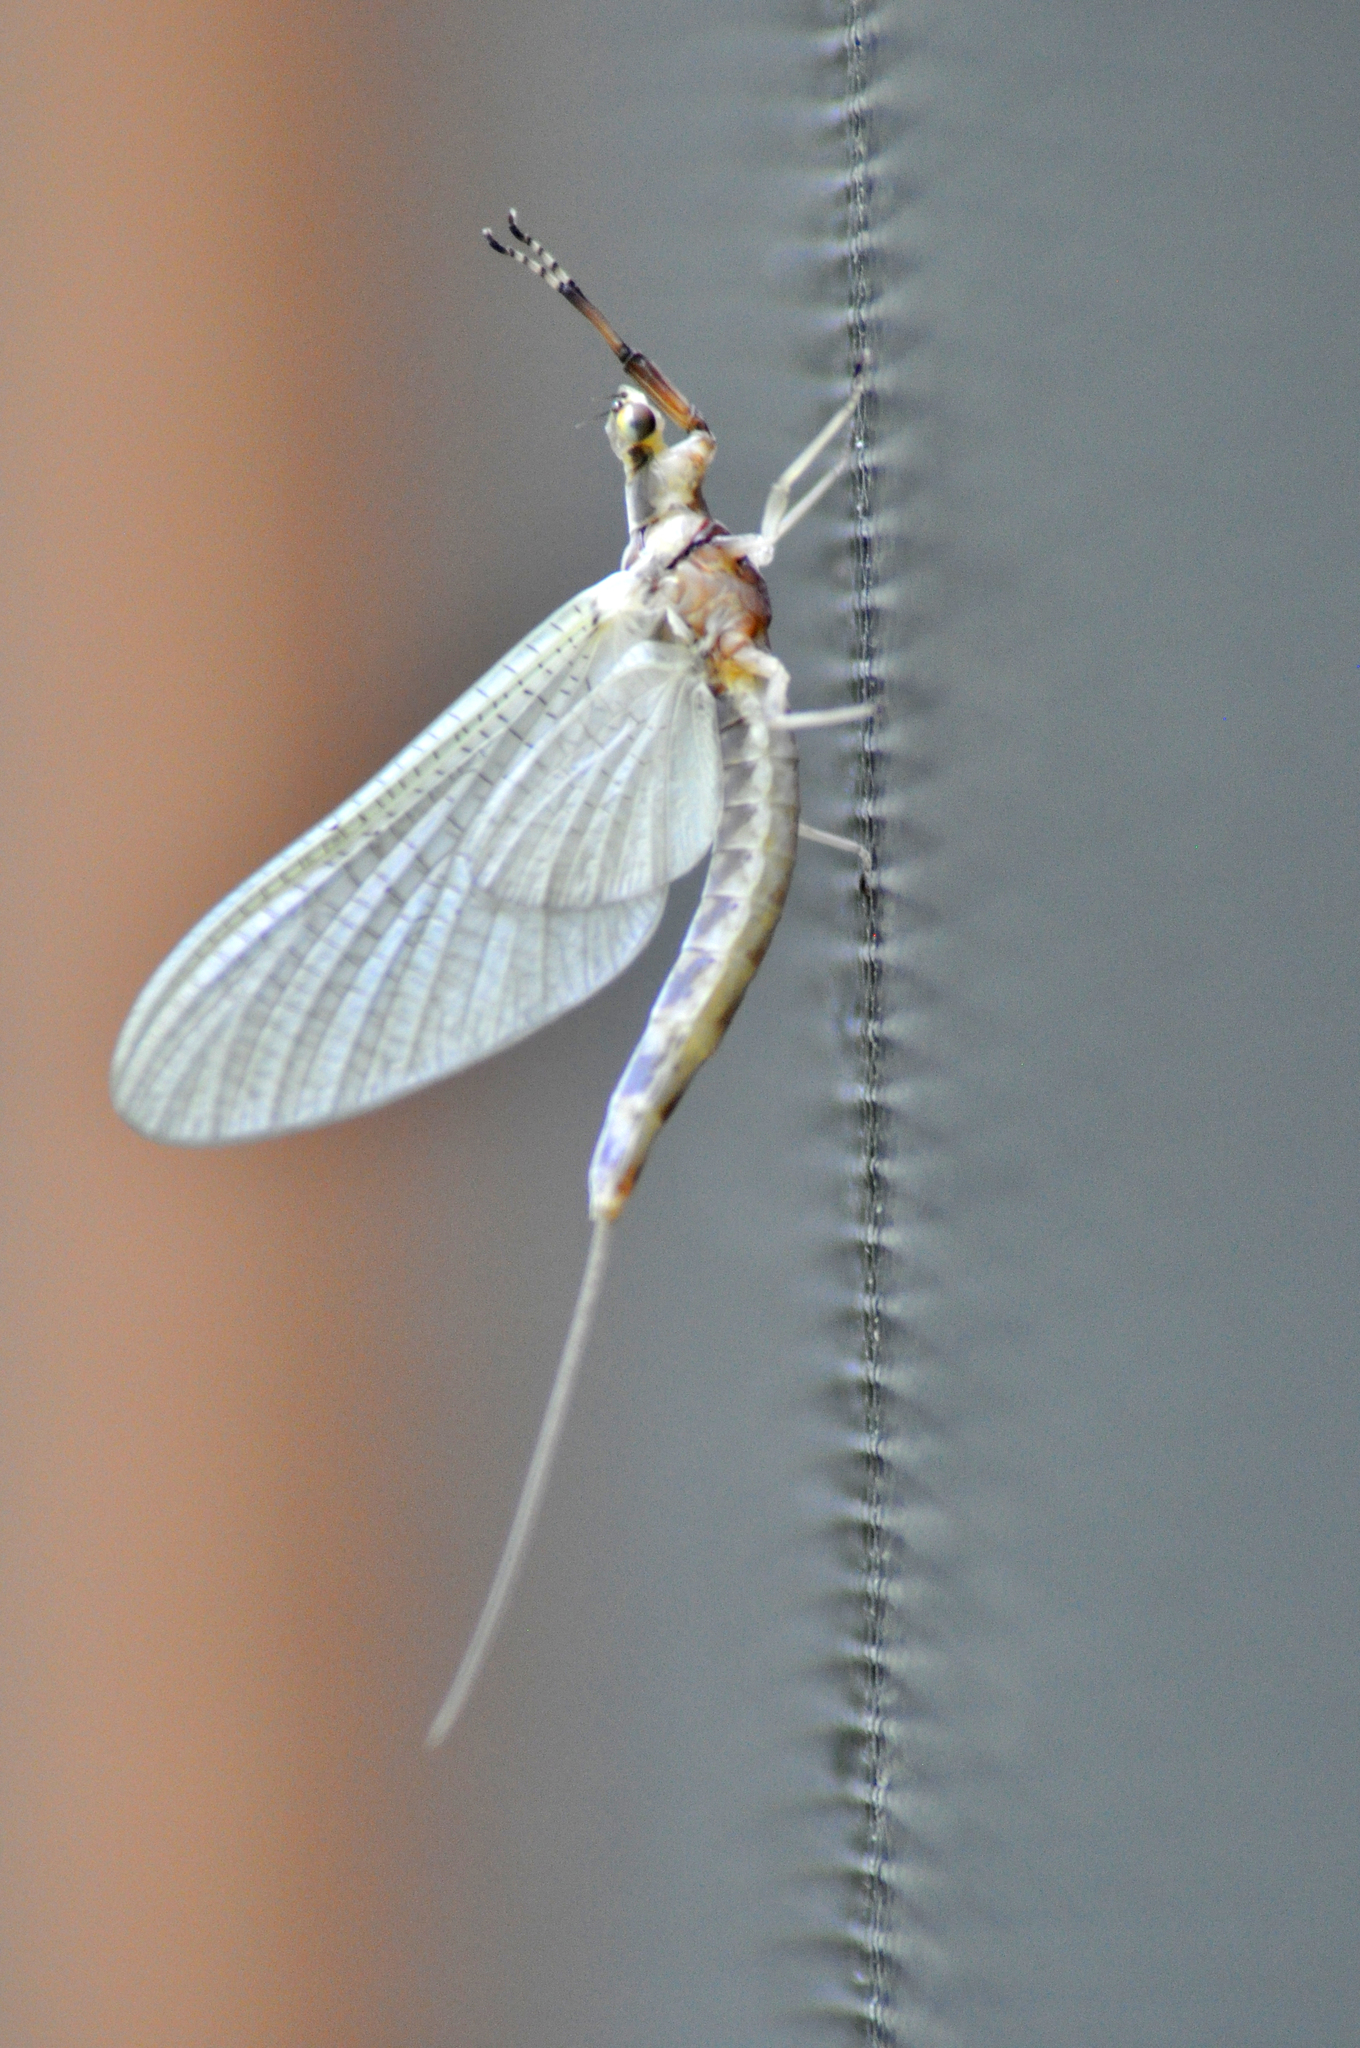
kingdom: Animalia
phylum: Arthropoda
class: Insecta
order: Ephemeroptera
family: Ephemeridae
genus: Hexagenia
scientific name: Hexagenia limbata
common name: Giant mayfly
